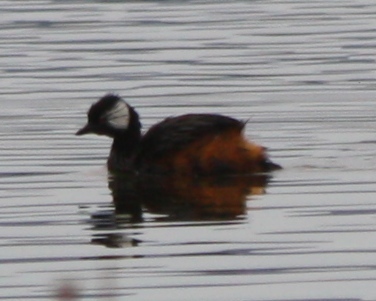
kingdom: Animalia
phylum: Chordata
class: Aves
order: Podicipediformes
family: Podicipedidae
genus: Rollandia
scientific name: Rollandia rolland
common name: White-tufted grebe
